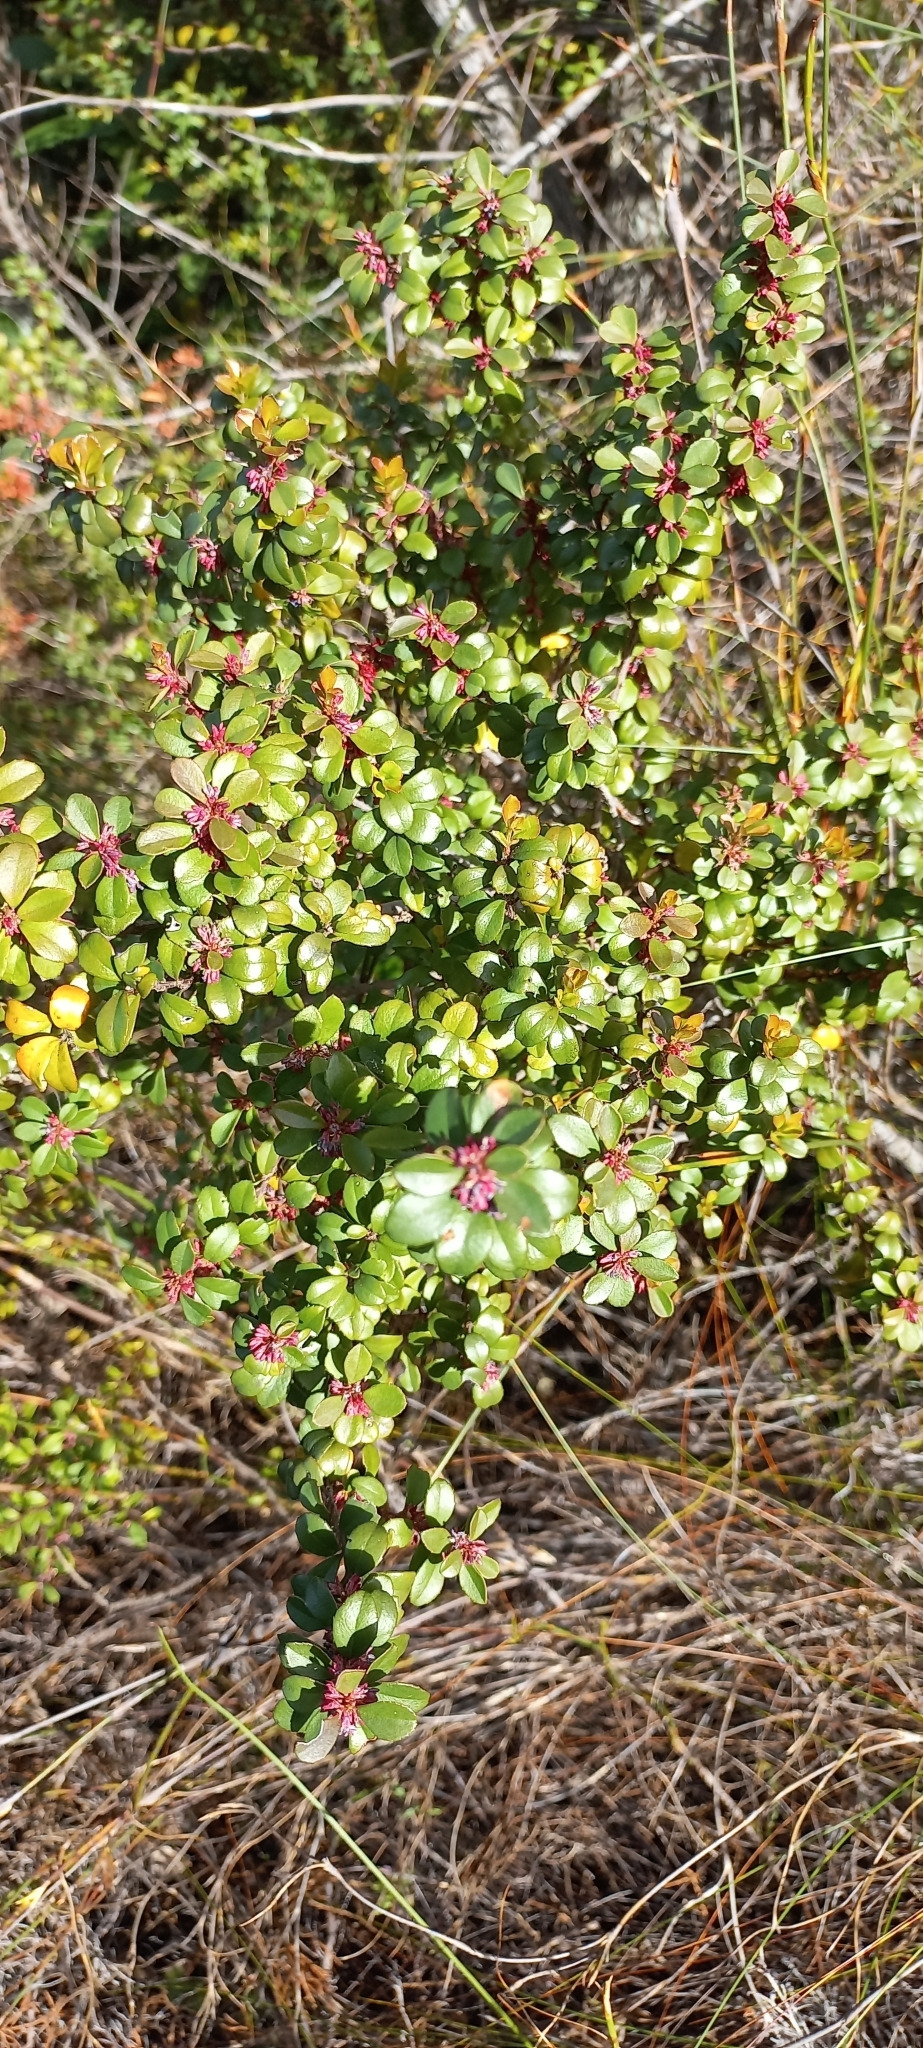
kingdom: Plantae
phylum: Tracheophyta
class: Magnoliopsida
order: Ericales
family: Primulaceae
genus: Myrsine
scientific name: Myrsine africana
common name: African-boxwood
